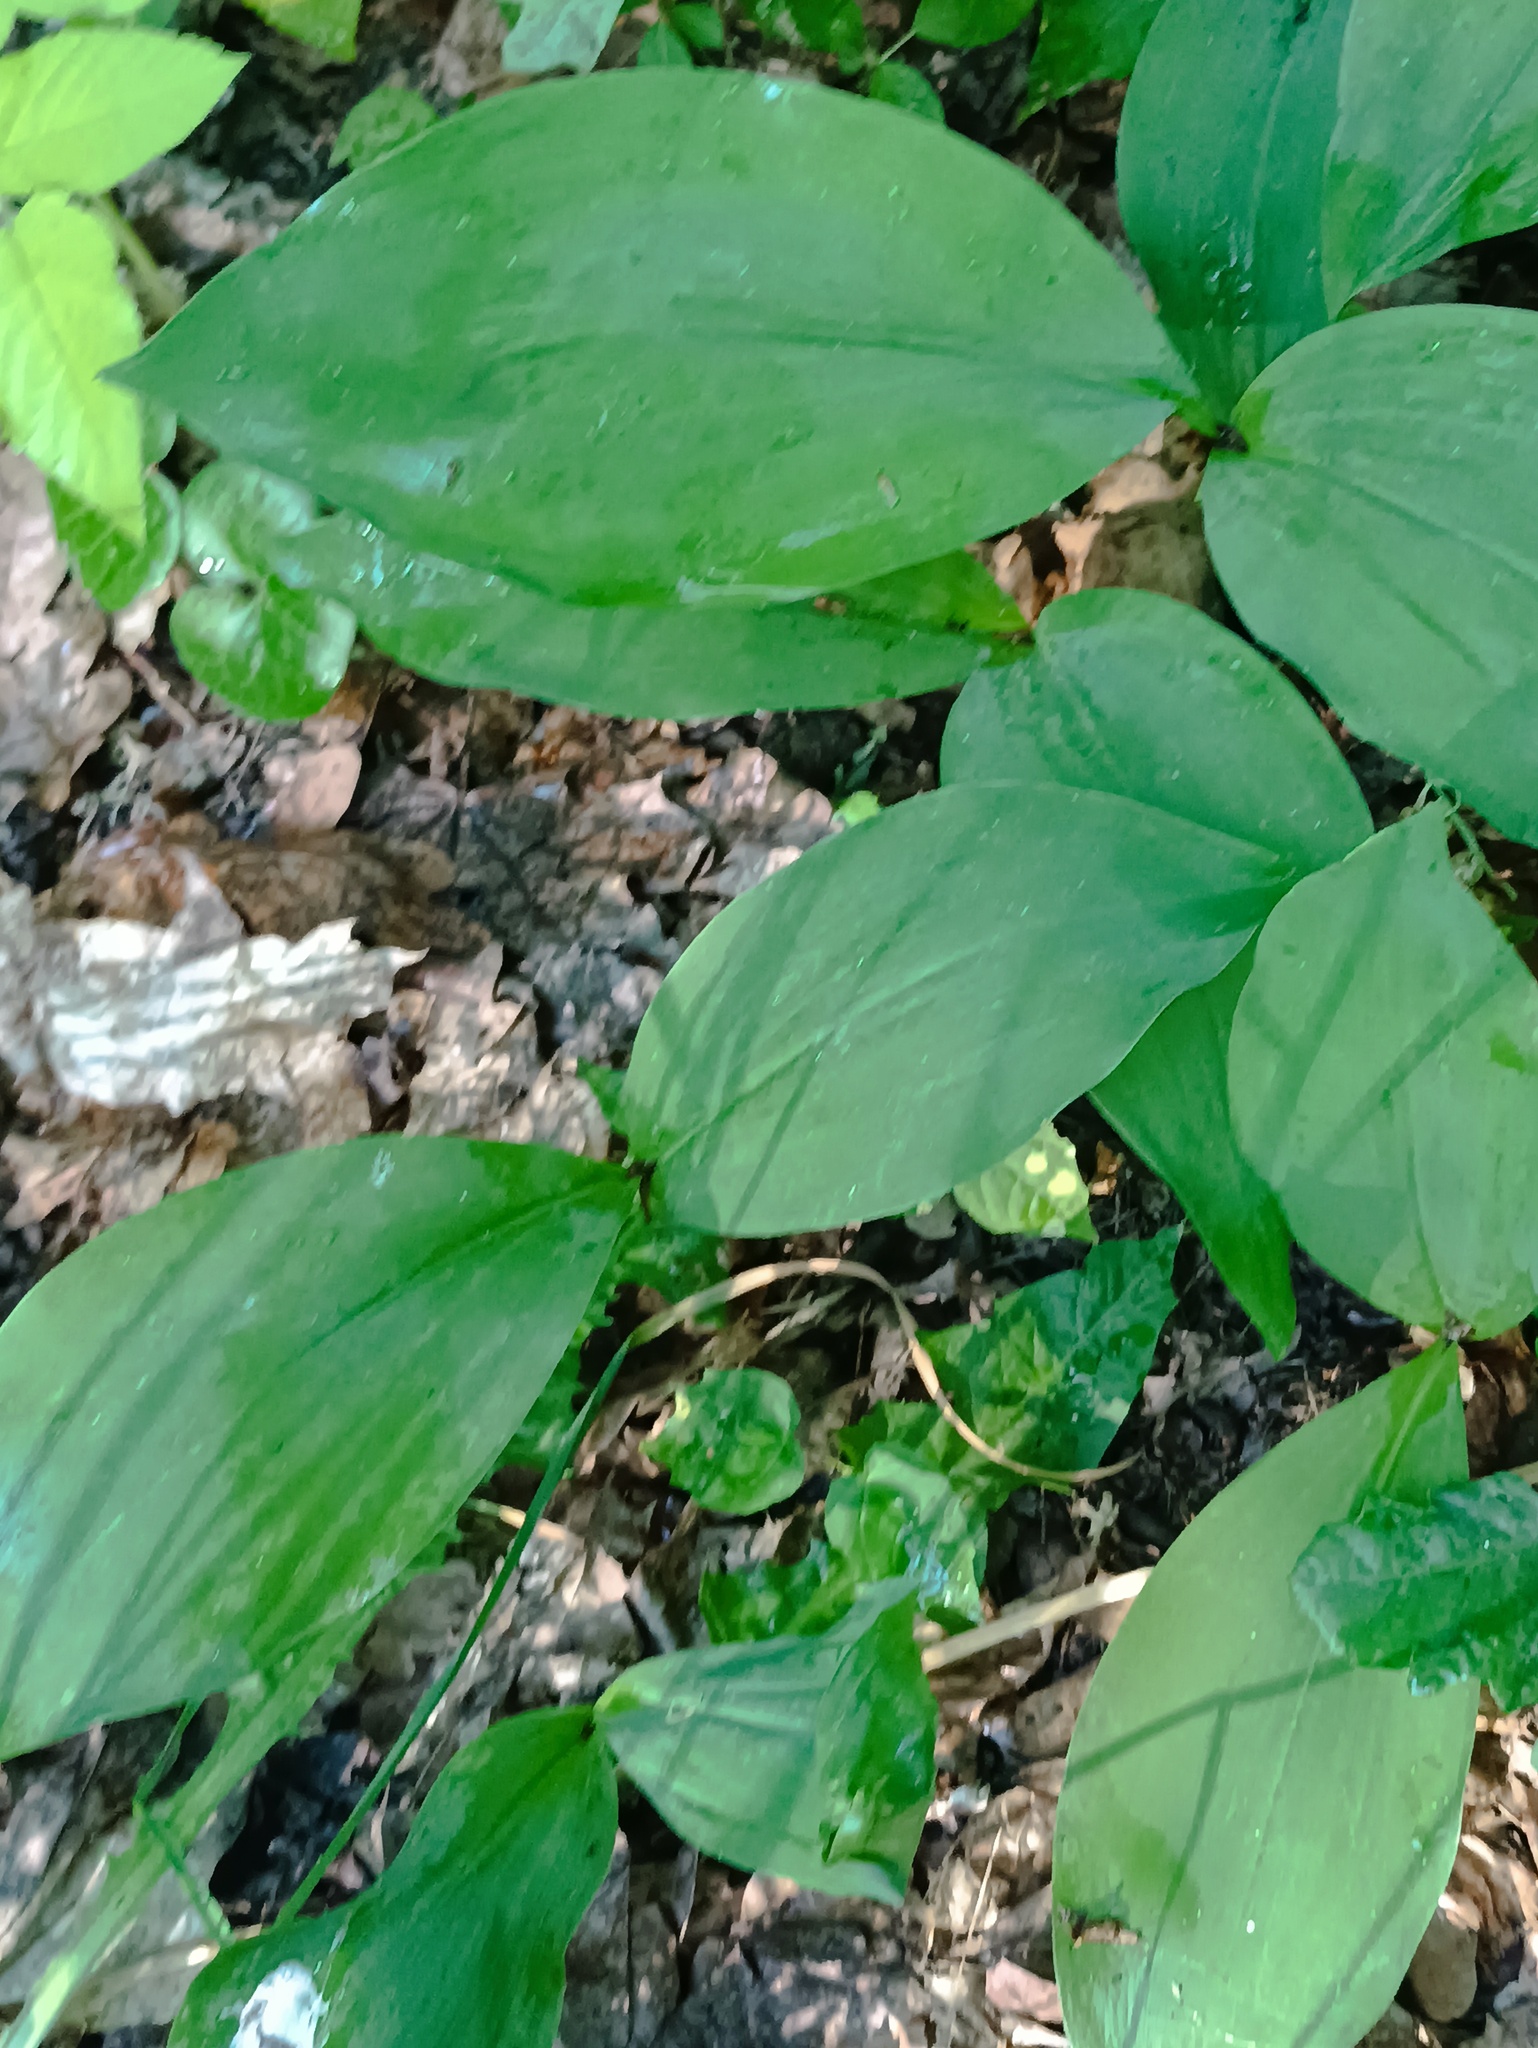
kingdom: Plantae
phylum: Tracheophyta
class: Liliopsida
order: Asparagales
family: Asparagaceae
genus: Convallaria
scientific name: Convallaria majalis
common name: Lily-of-the-valley
